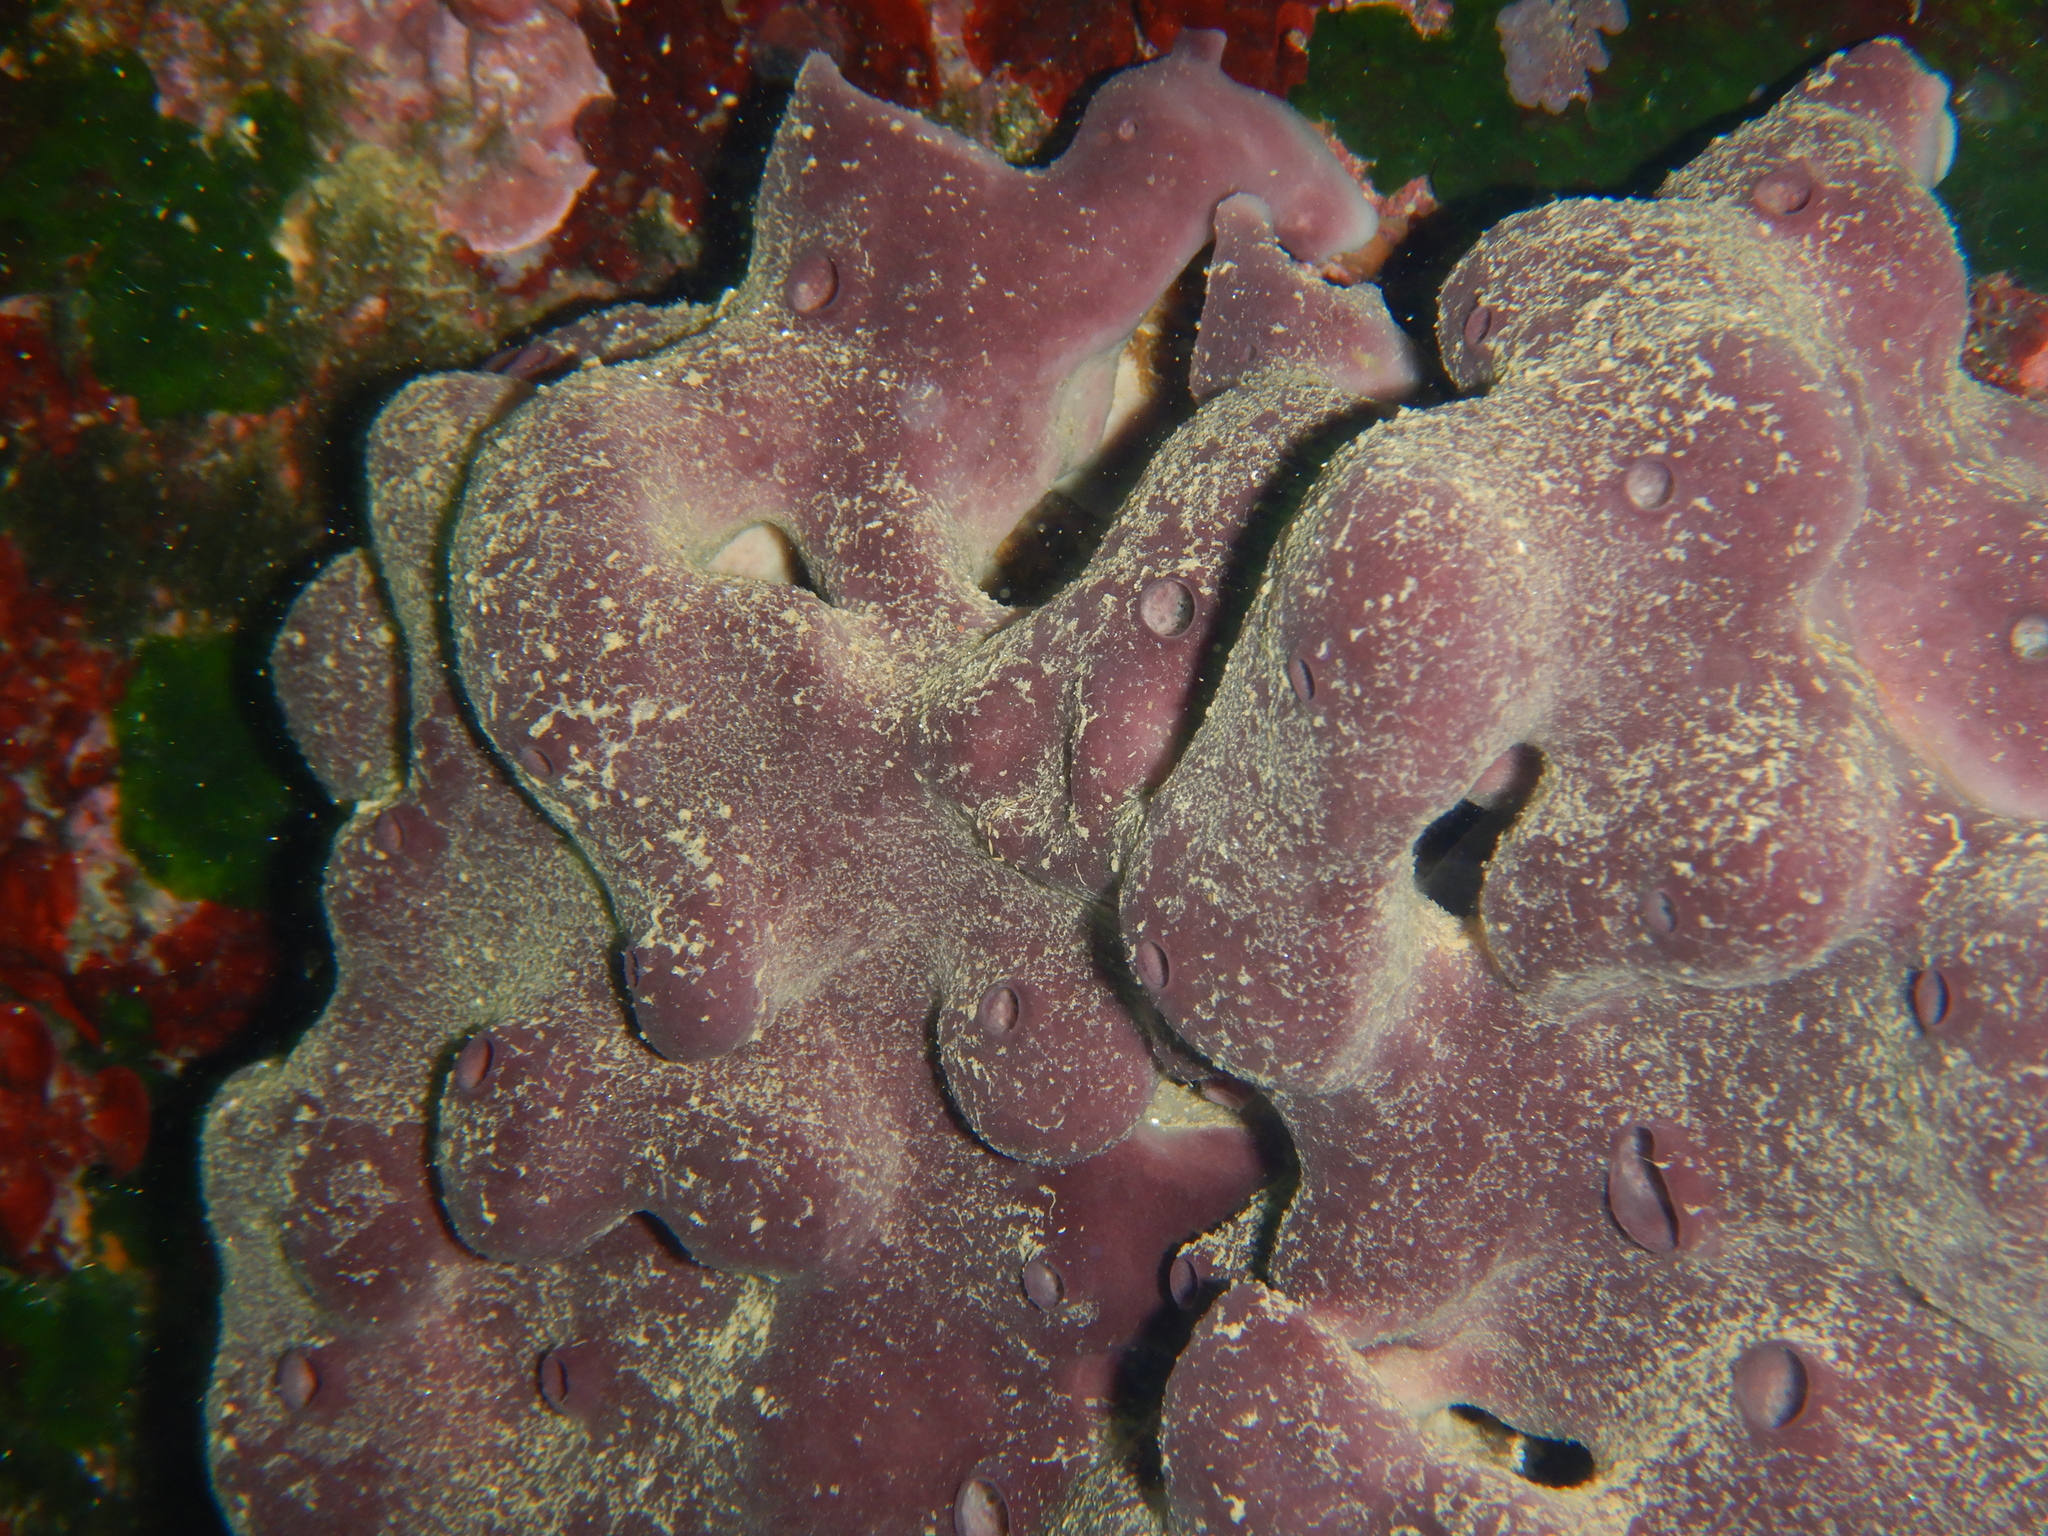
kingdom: Animalia
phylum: Porifera
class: Demospongiae
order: Haplosclerida
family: Petrosiidae
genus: Petrosia
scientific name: Petrosia ficiformis
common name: Stony sponge
